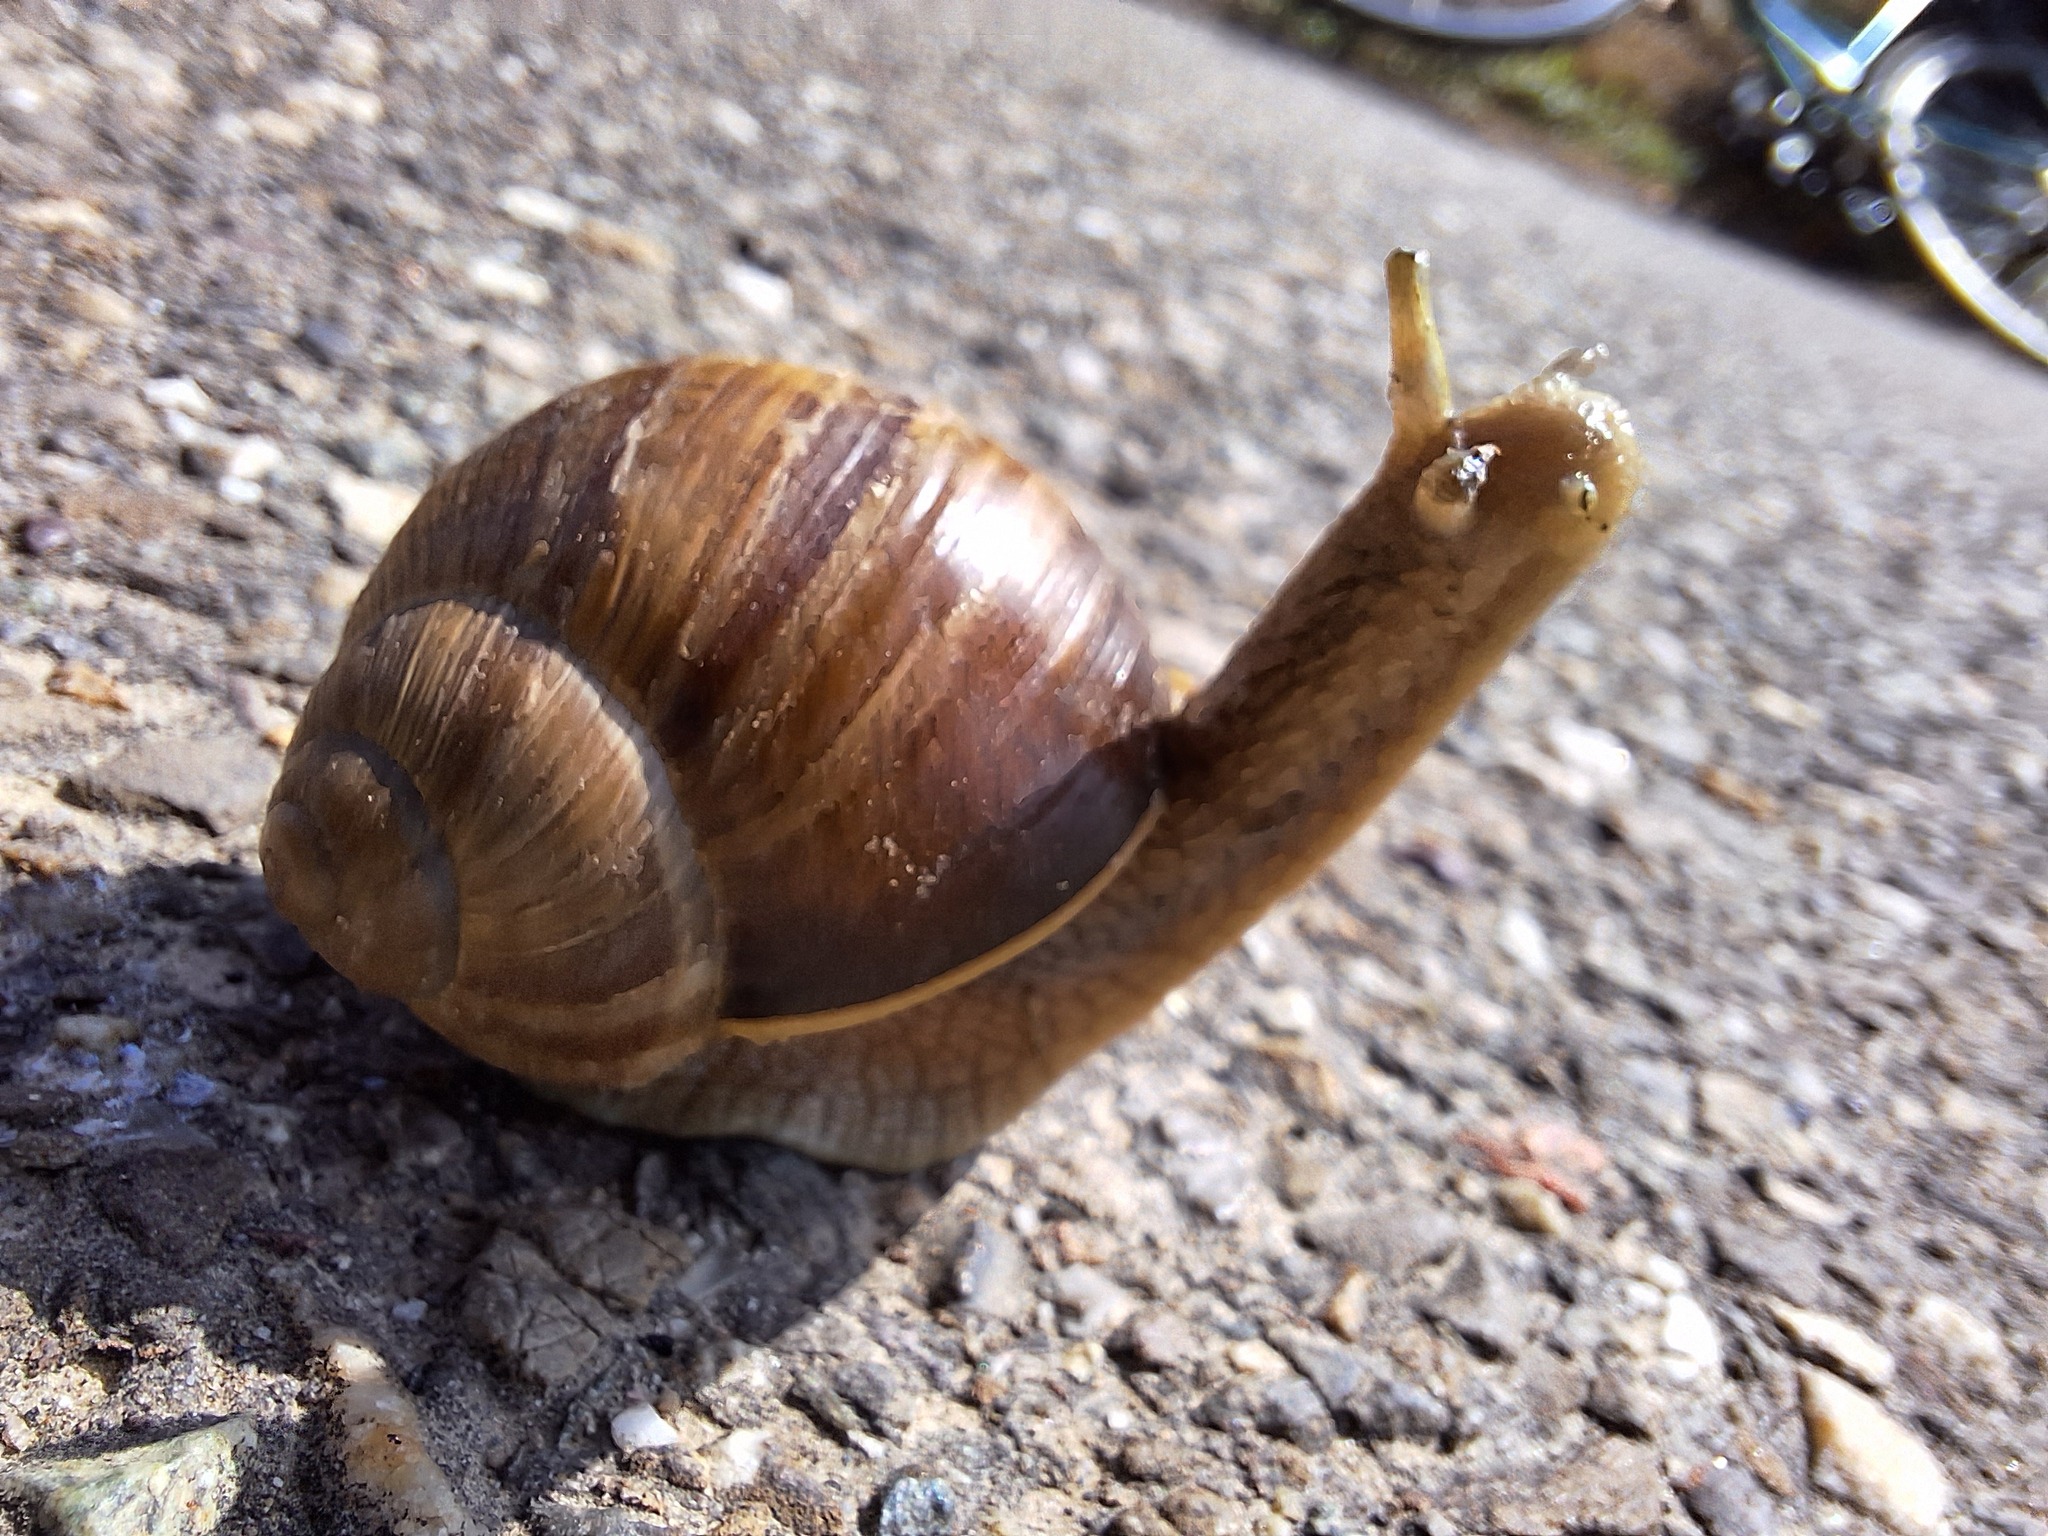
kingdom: Animalia
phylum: Mollusca
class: Gastropoda
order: Stylommatophora
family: Helicidae
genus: Helix
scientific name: Helix pomatia
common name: Roman snail
